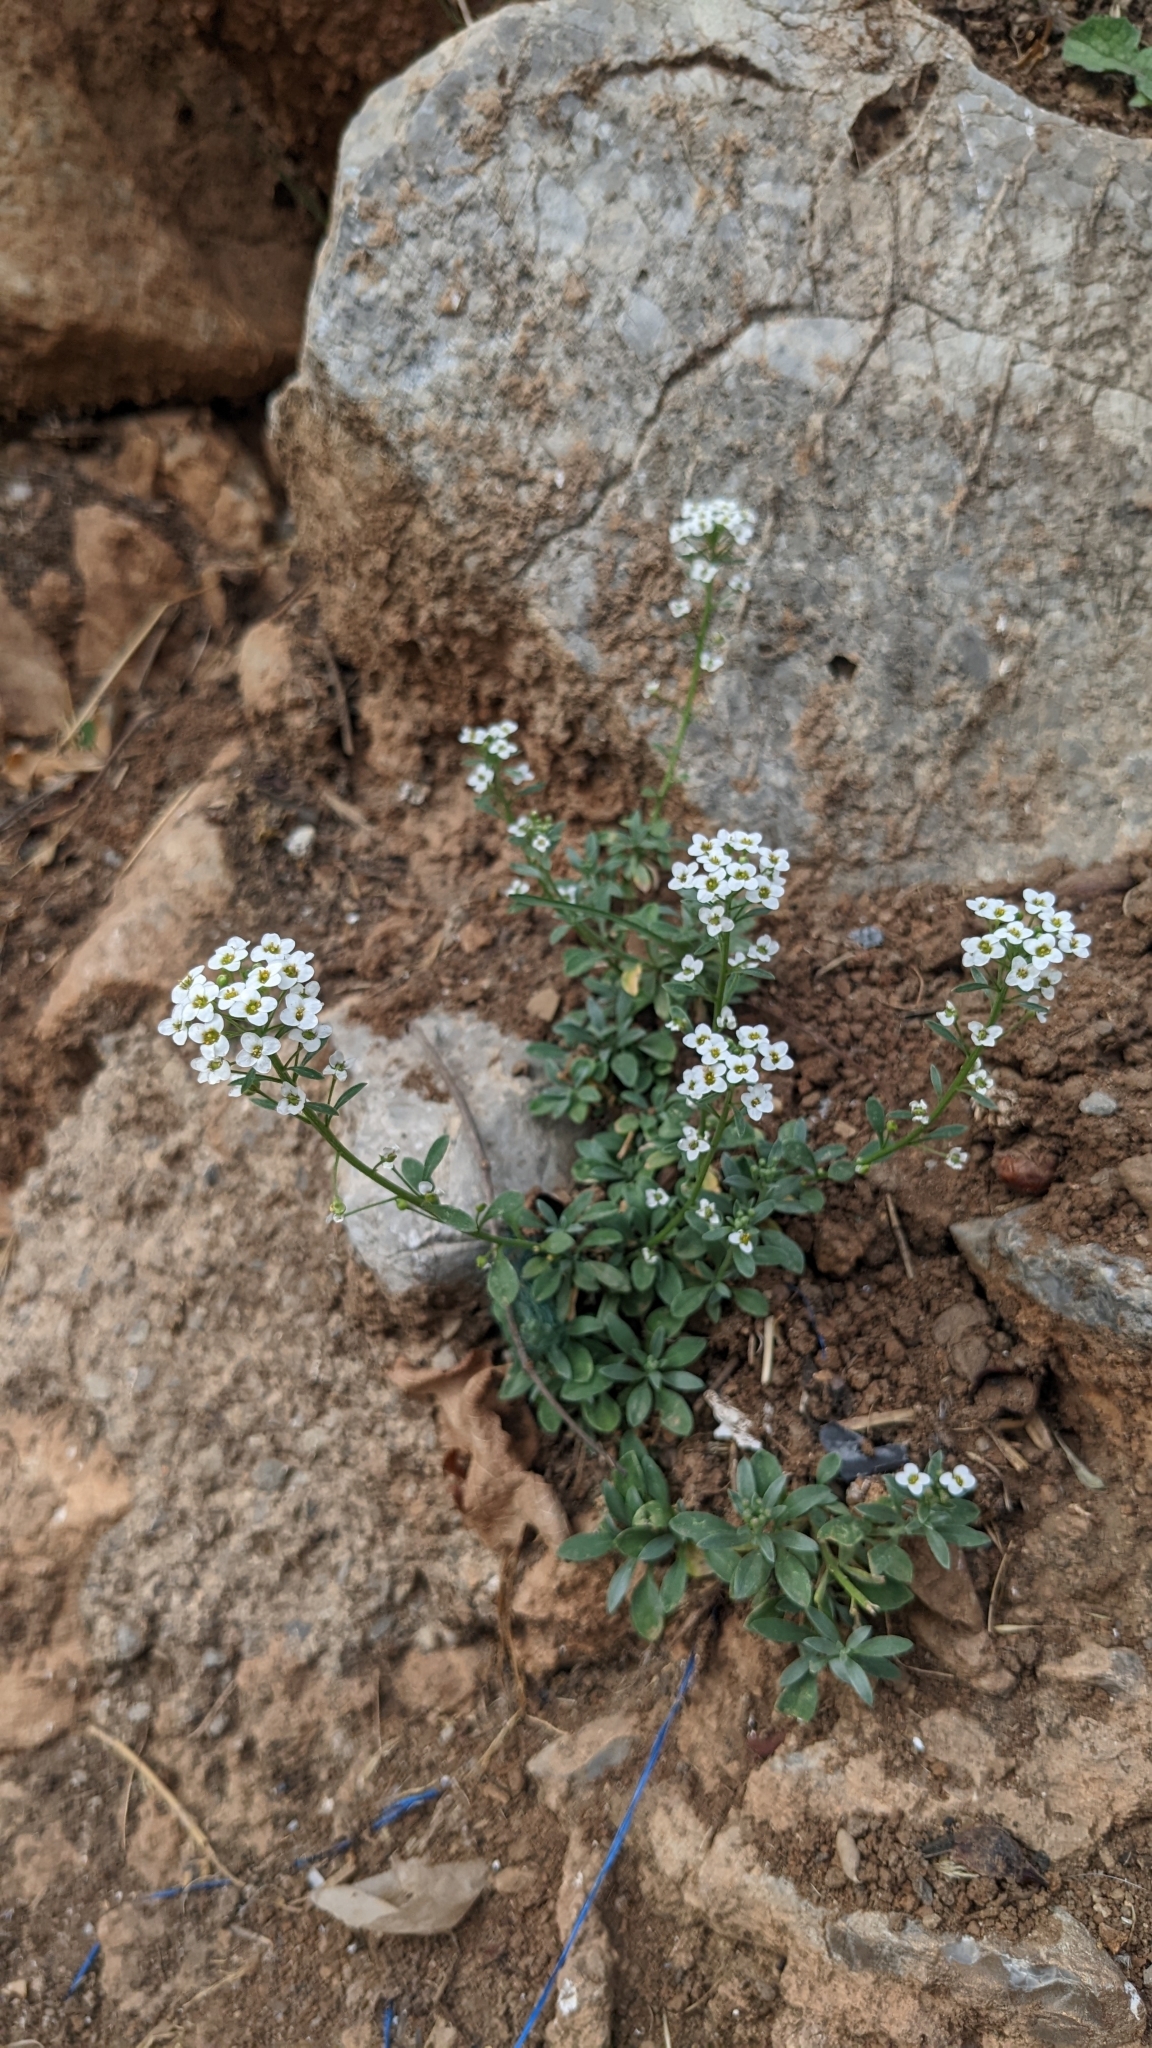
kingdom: Plantae
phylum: Tracheophyta
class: Magnoliopsida
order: Brassicales
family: Brassicaceae
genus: Lobularia
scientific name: Lobularia maritima
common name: Sweet alison
